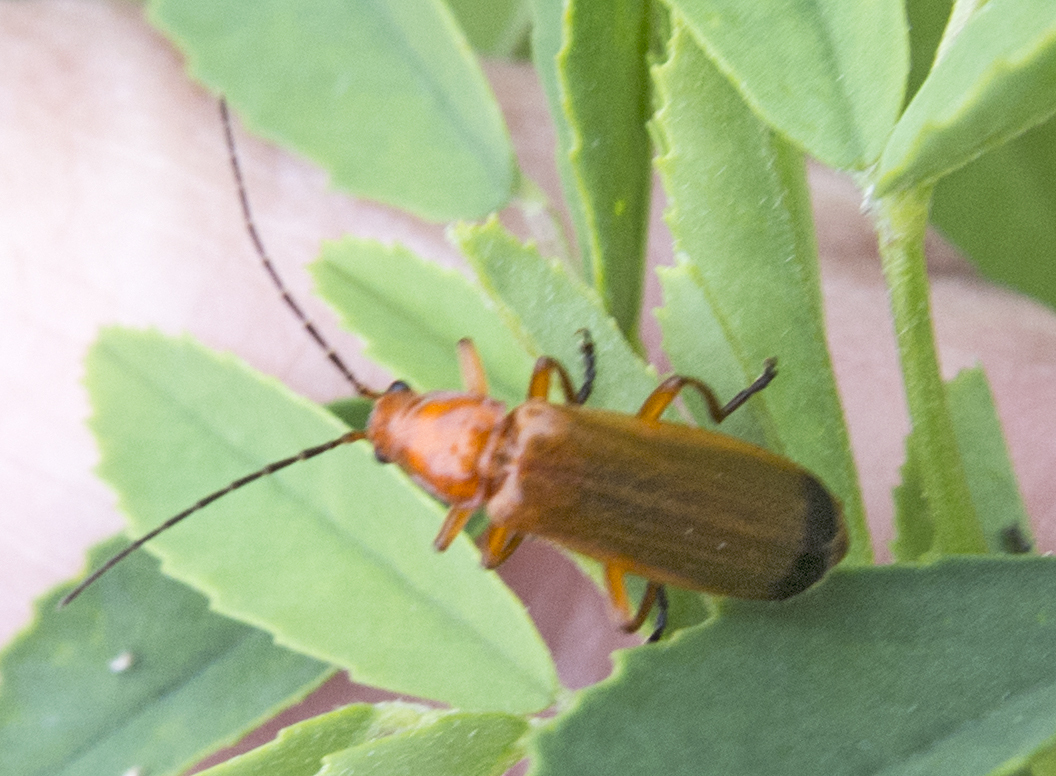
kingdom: Animalia
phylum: Arthropoda
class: Insecta
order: Coleoptera
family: Cantharidae
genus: Rhagonycha
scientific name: Rhagonycha fulva
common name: Common red soldier beetle
